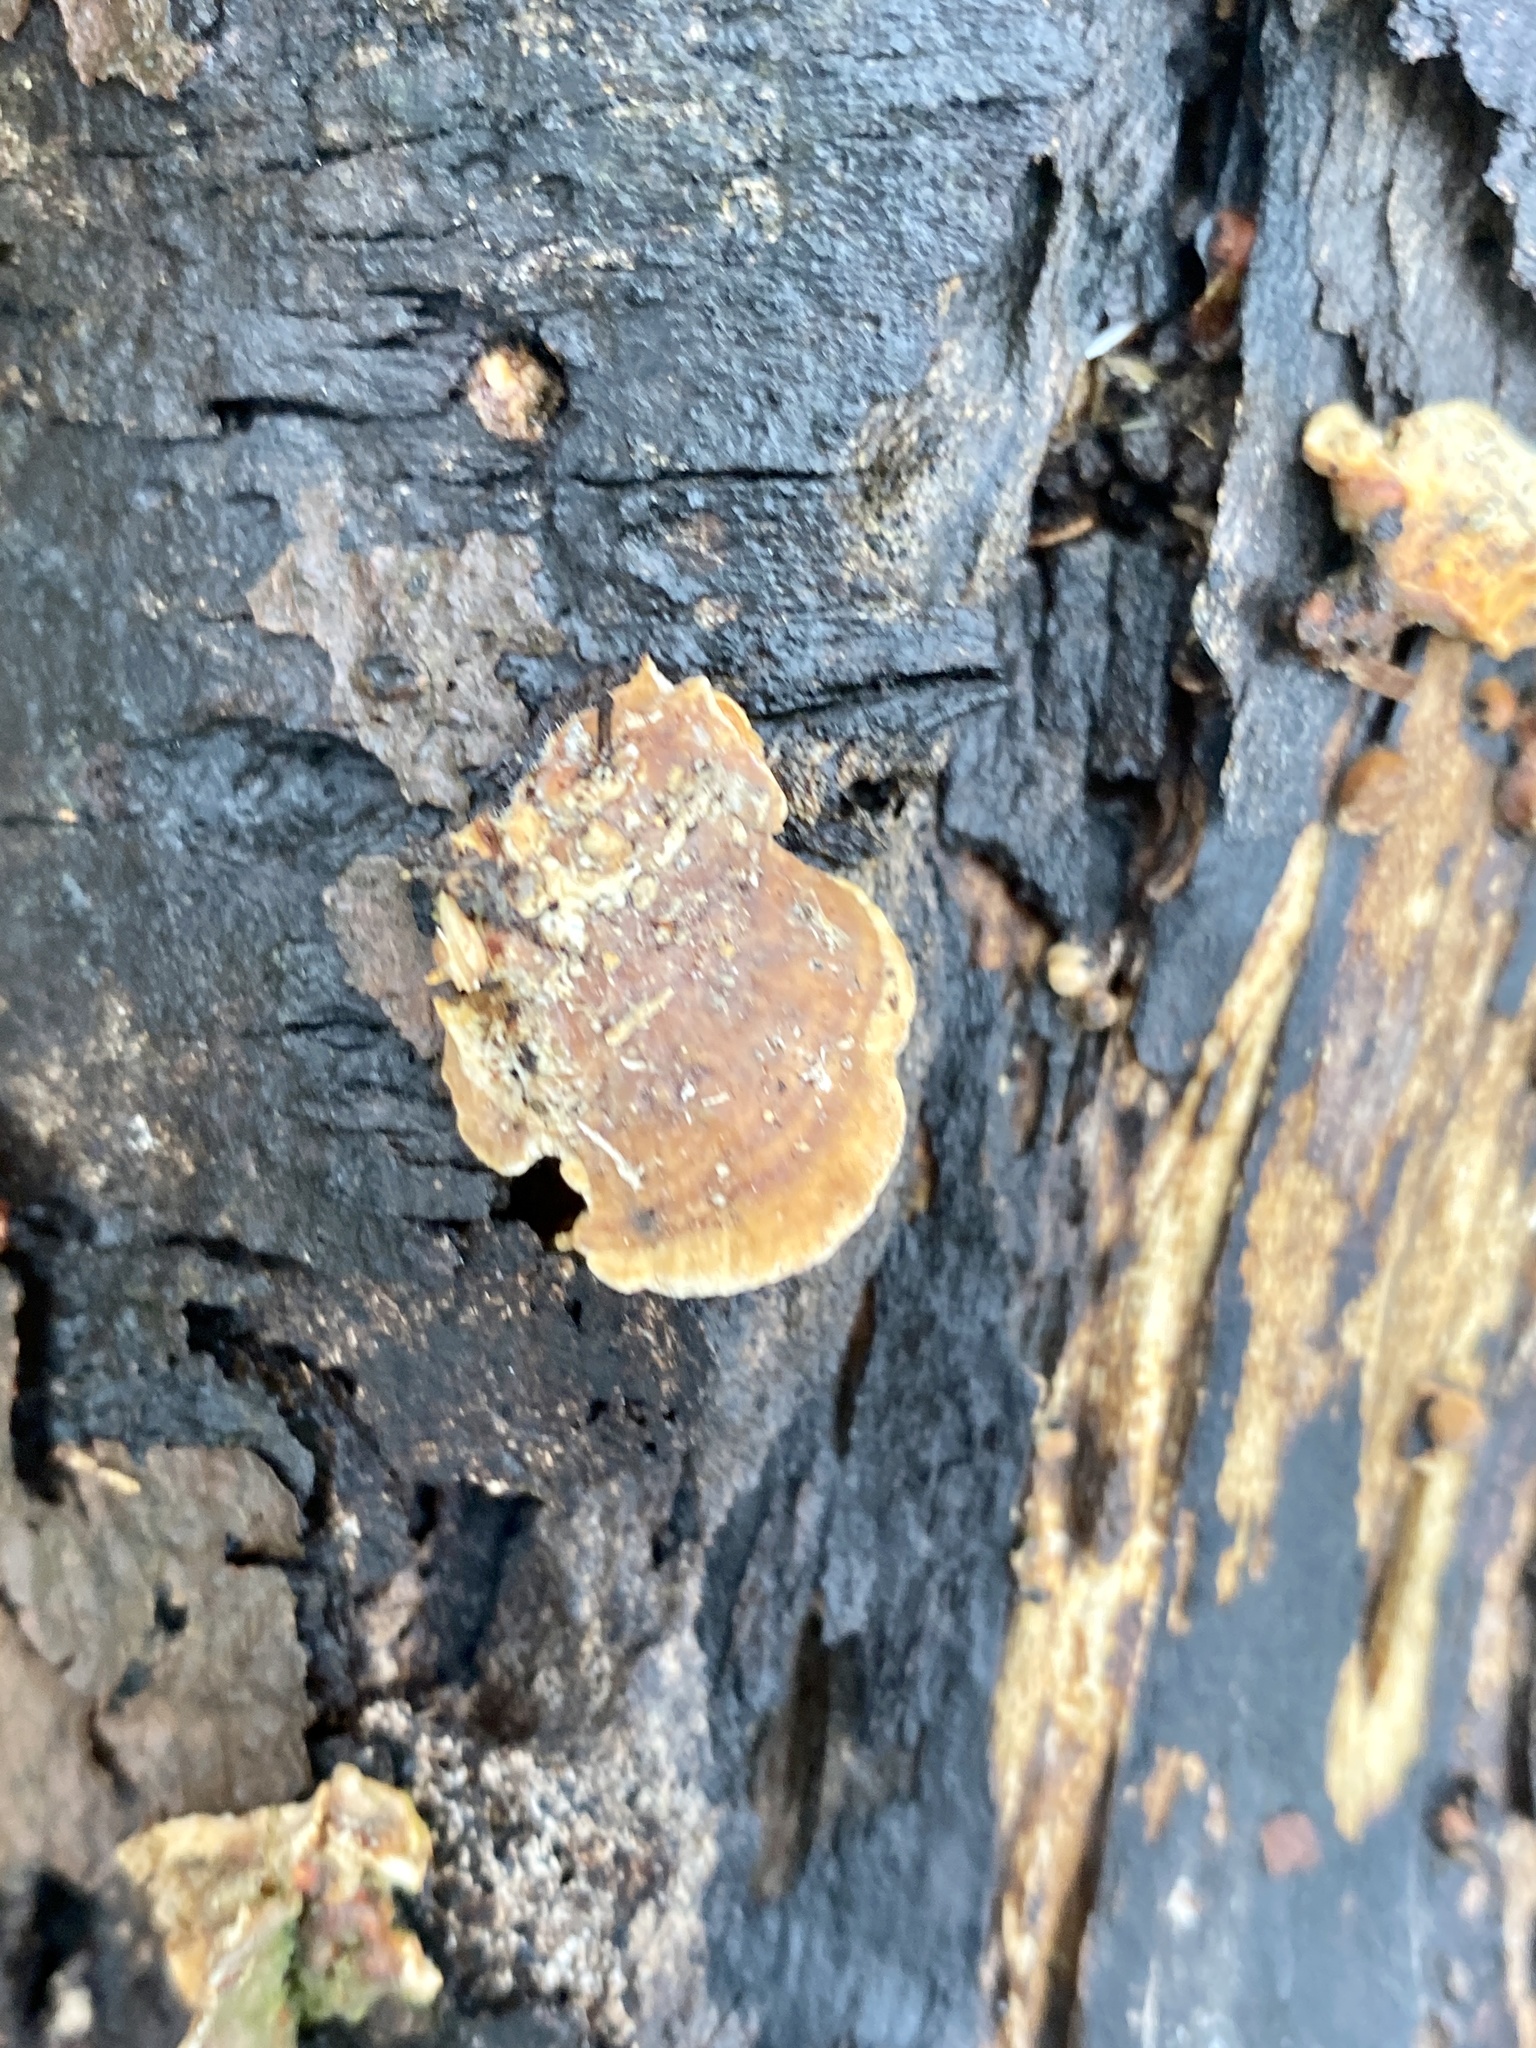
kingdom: Fungi
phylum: Basidiomycota
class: Agaricomycetes
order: Russulales
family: Stereaceae
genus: Stereum
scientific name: Stereum lobatum
